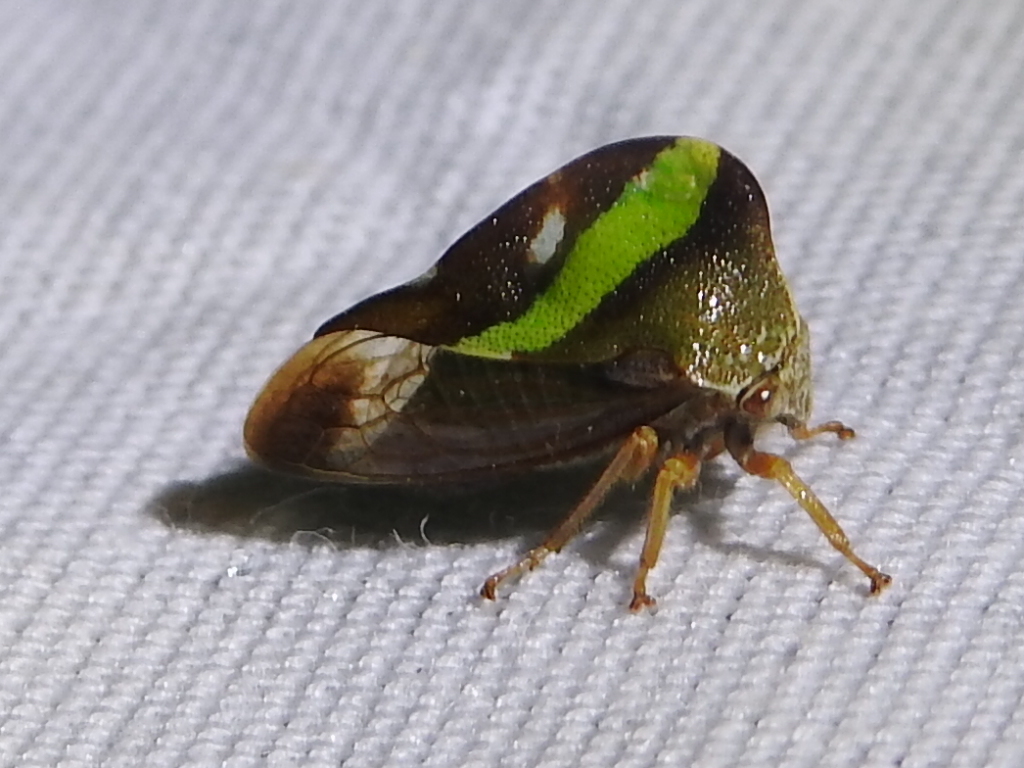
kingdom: Animalia
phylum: Arthropoda
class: Insecta
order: Hemiptera
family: Membracidae
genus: Smilia
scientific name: Smilia camelus
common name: Camel treehopper
